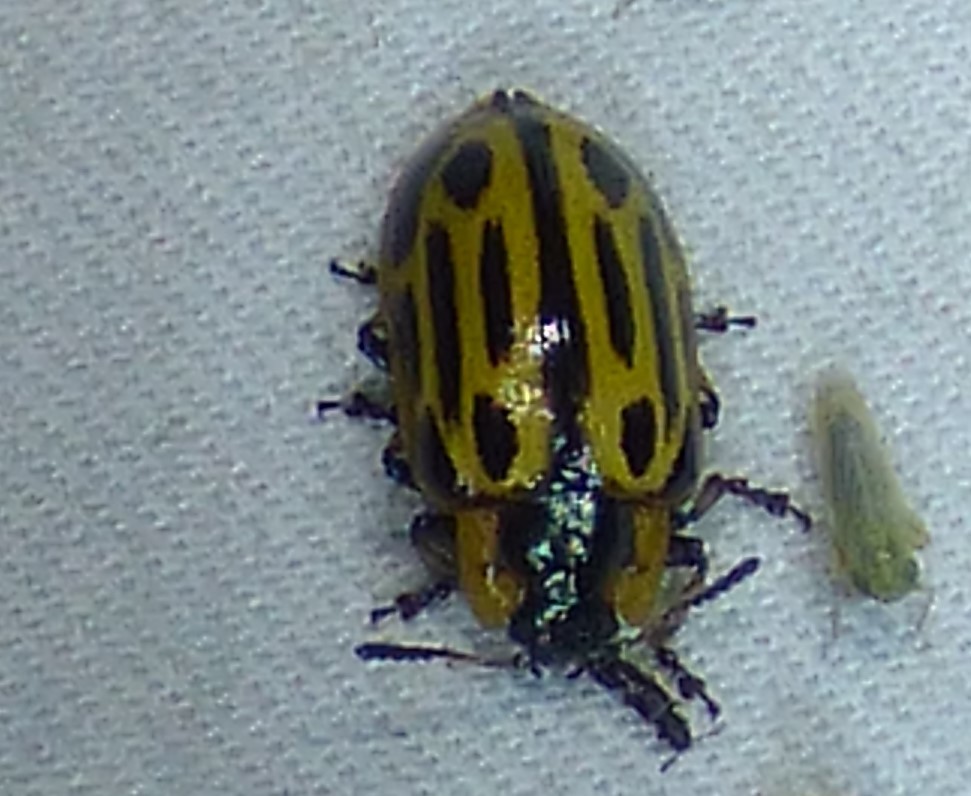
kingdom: Animalia
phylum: Arthropoda
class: Insecta
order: Coleoptera
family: Chrysomelidae
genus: Aethiopocassis
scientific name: Aethiopocassis scripta
